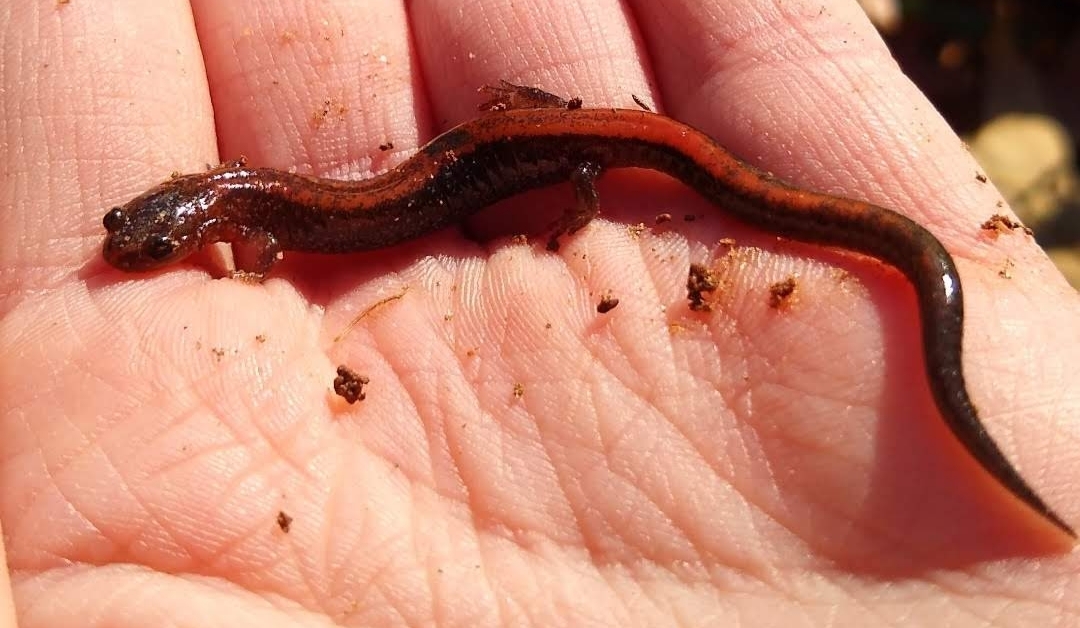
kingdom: Animalia
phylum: Chordata
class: Amphibia
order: Caudata
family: Plethodontidae
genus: Plethodon
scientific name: Plethodon cinereus
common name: Redback salamander
